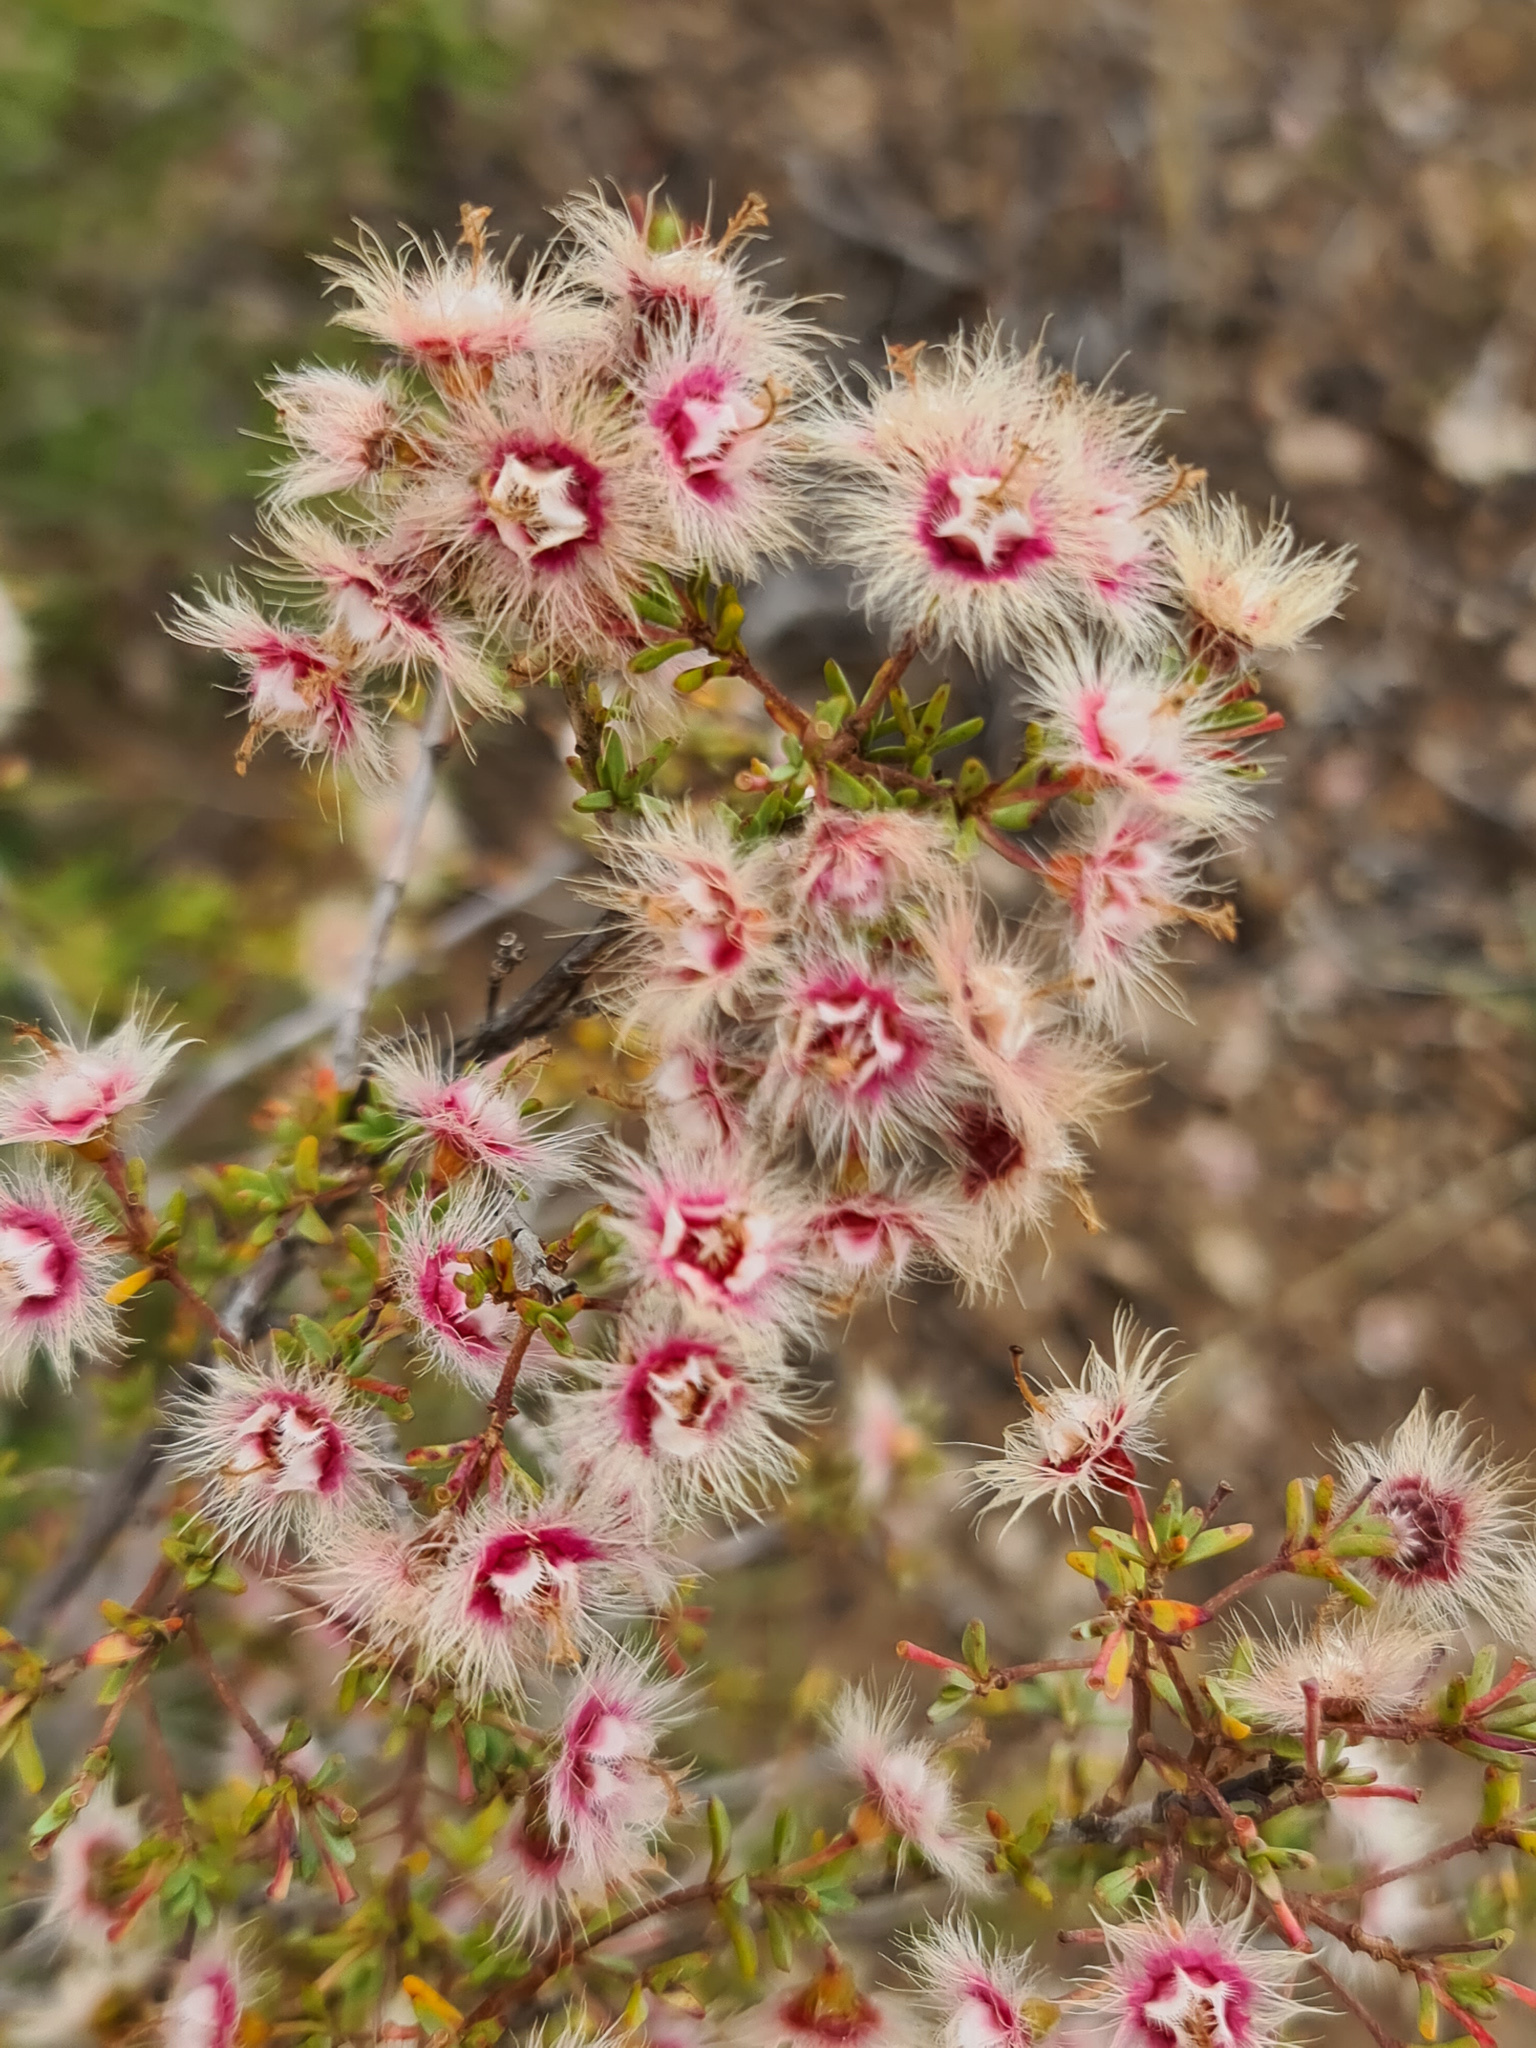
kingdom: Plantae
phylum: Tracheophyta
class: Magnoliopsida
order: Myrtales
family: Myrtaceae
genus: Verticordia
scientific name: Verticordia brachypoda
